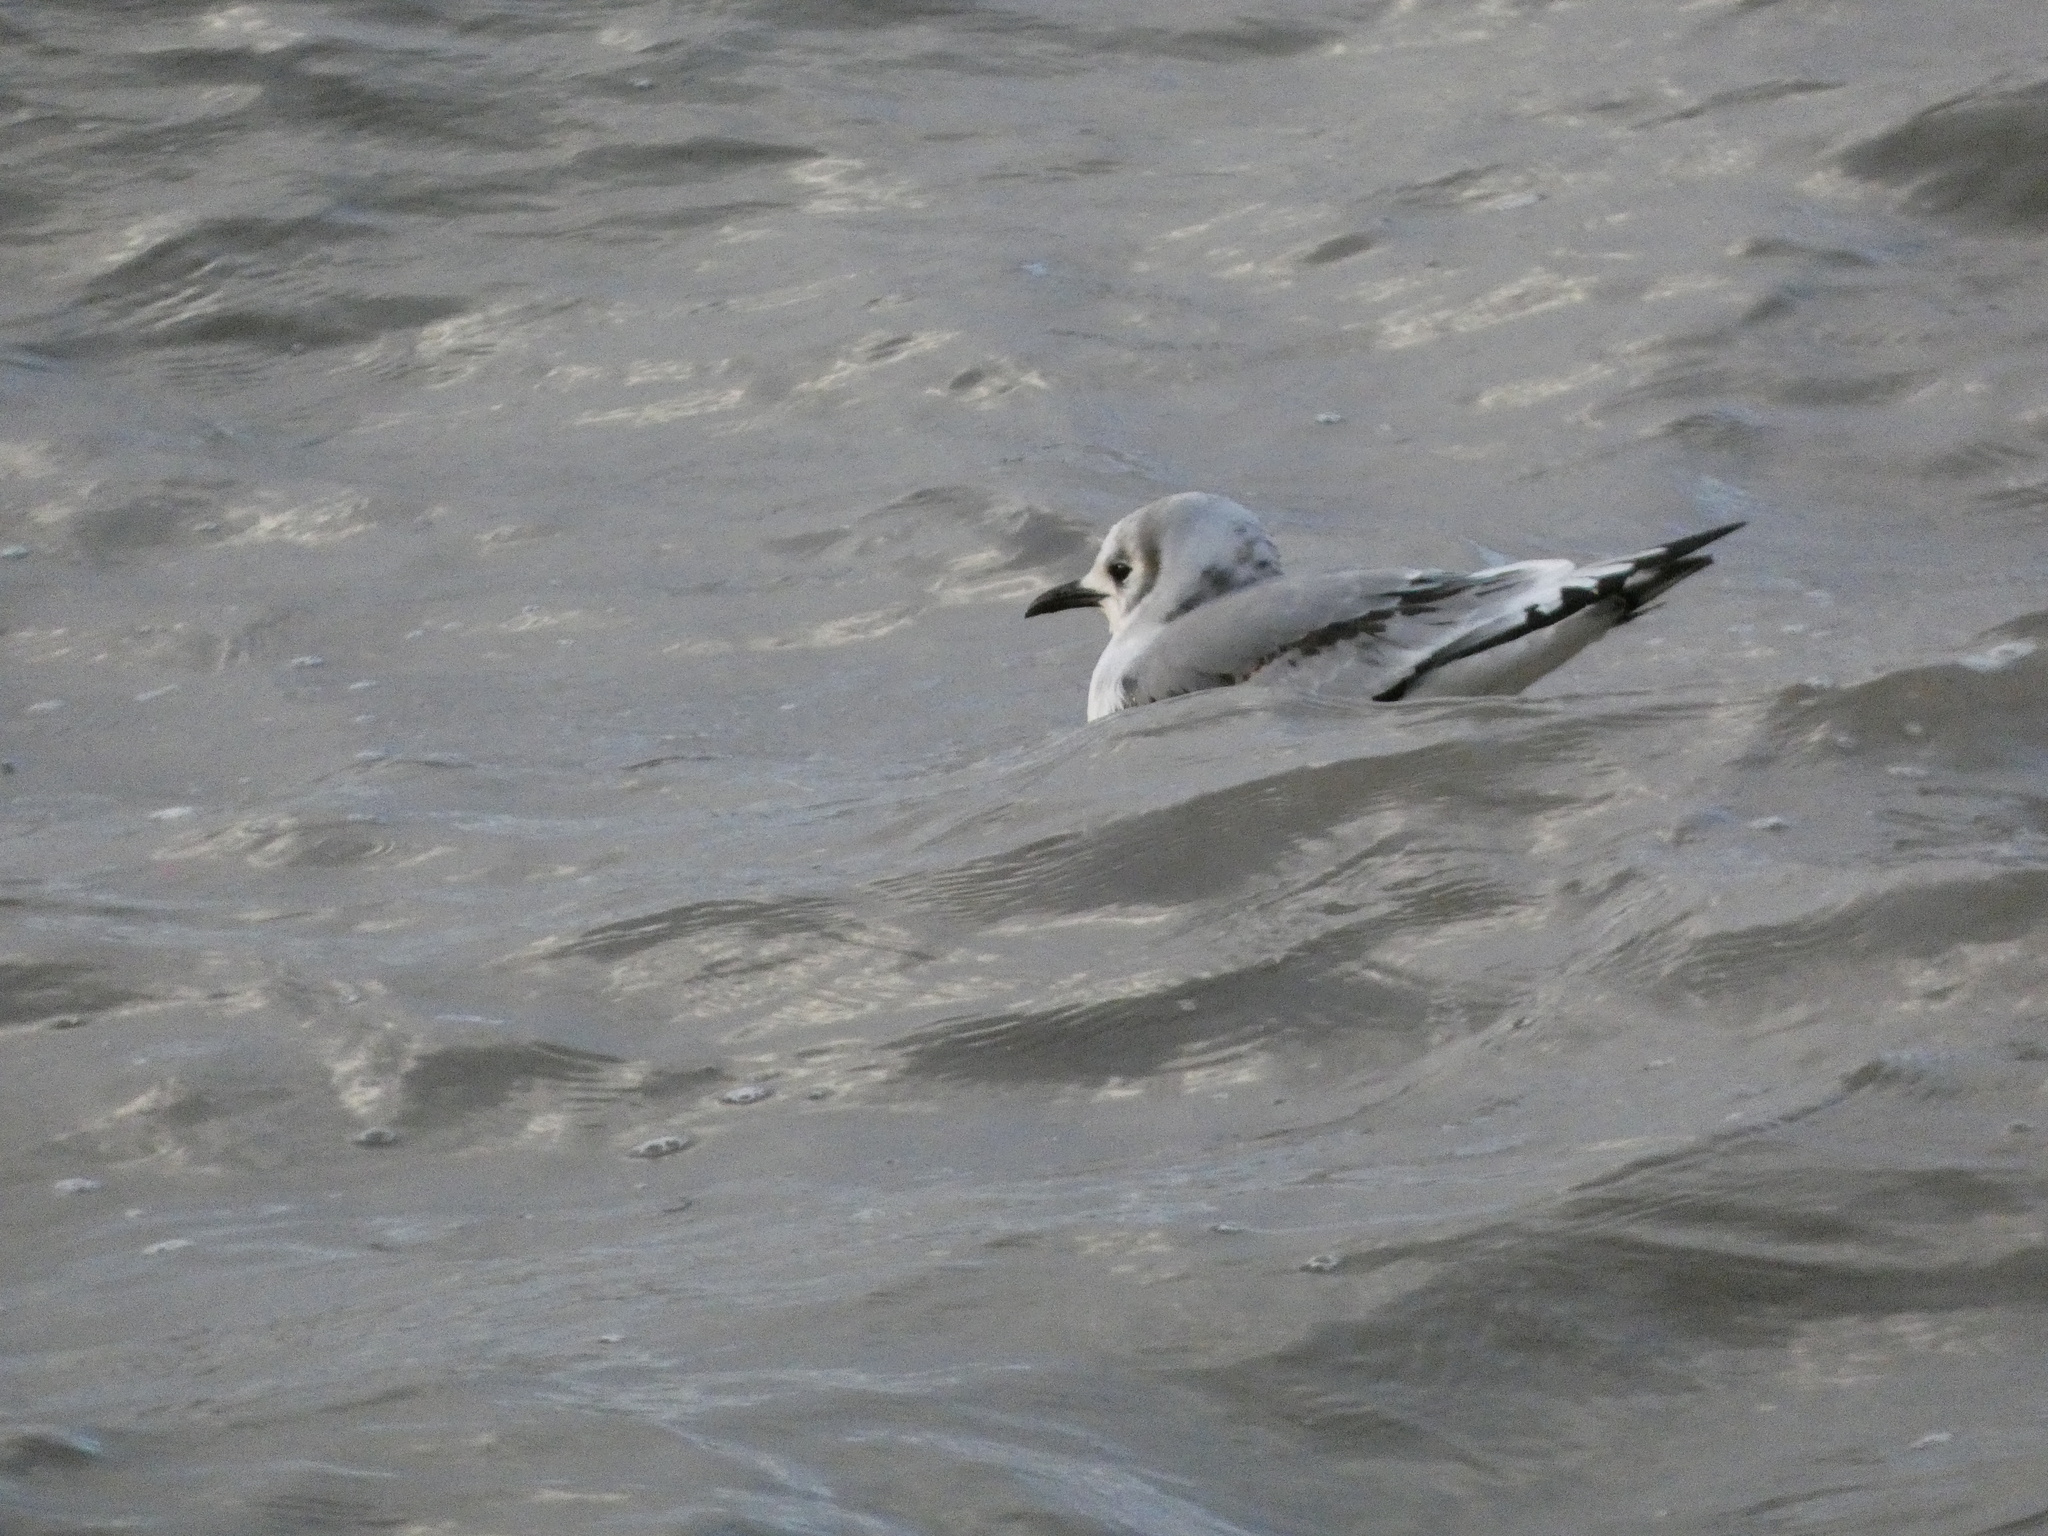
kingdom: Animalia
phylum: Chordata
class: Aves
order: Charadriiformes
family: Laridae
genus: Rissa
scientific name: Rissa tridactyla
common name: Black-legged kittiwake
